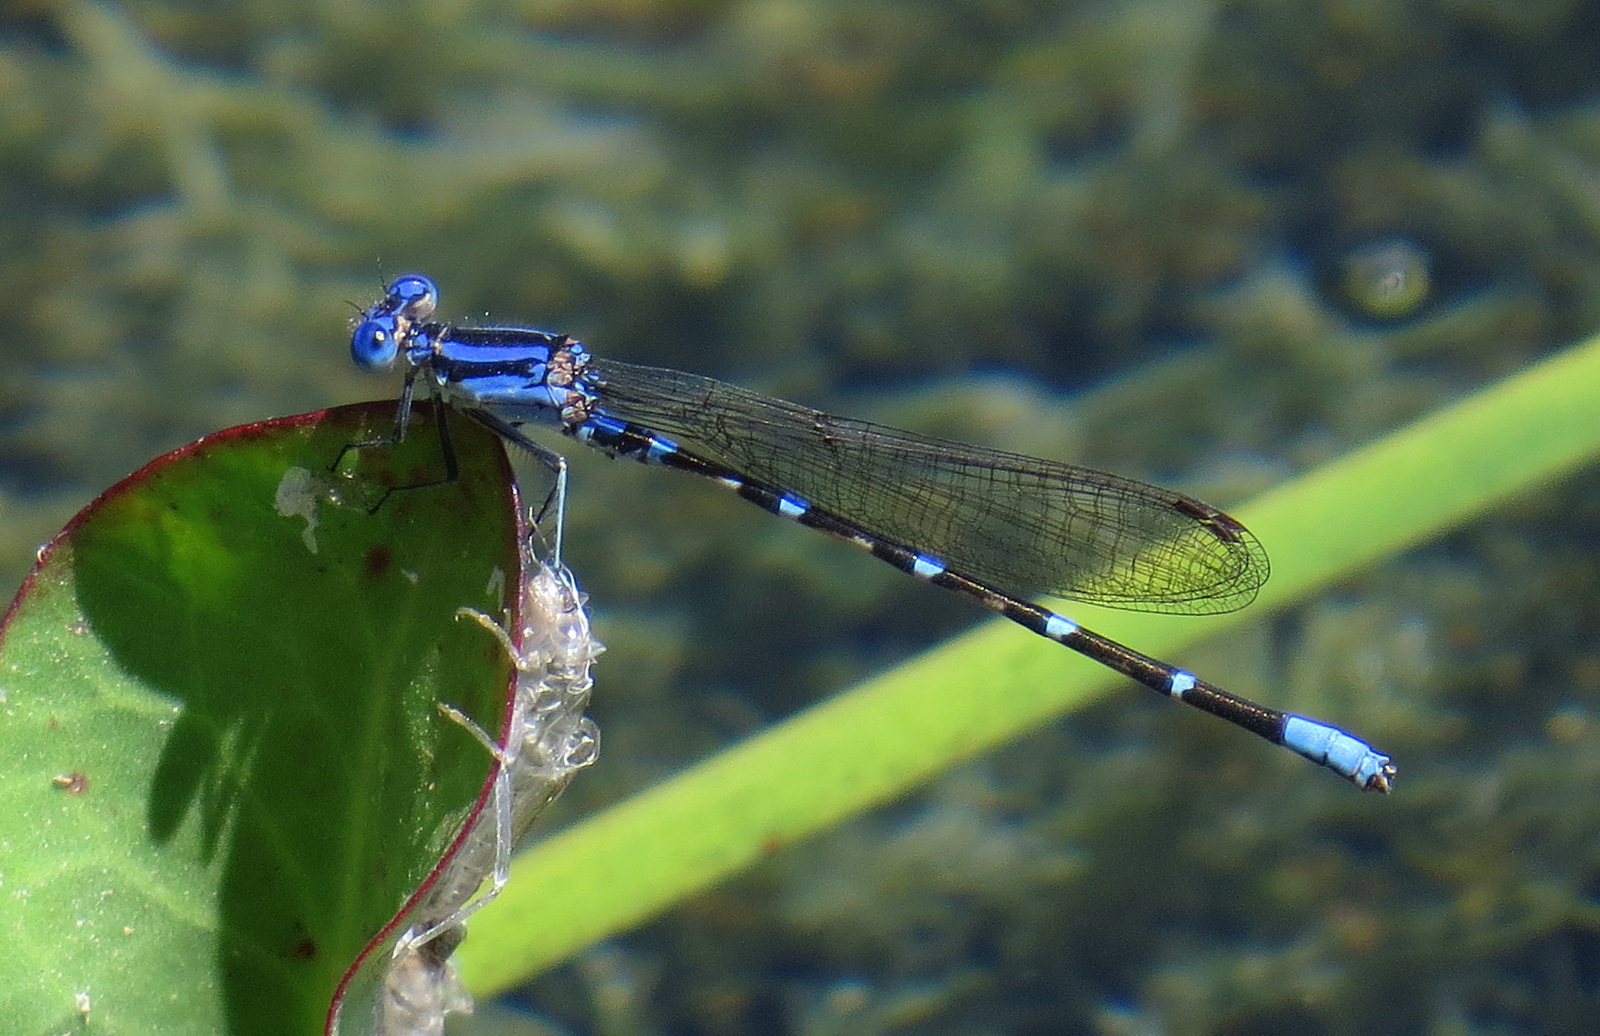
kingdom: Animalia
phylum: Arthropoda
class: Insecta
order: Odonata
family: Coenagrionidae
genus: Argia
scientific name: Argia sedula
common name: Blue-ringed dancer
